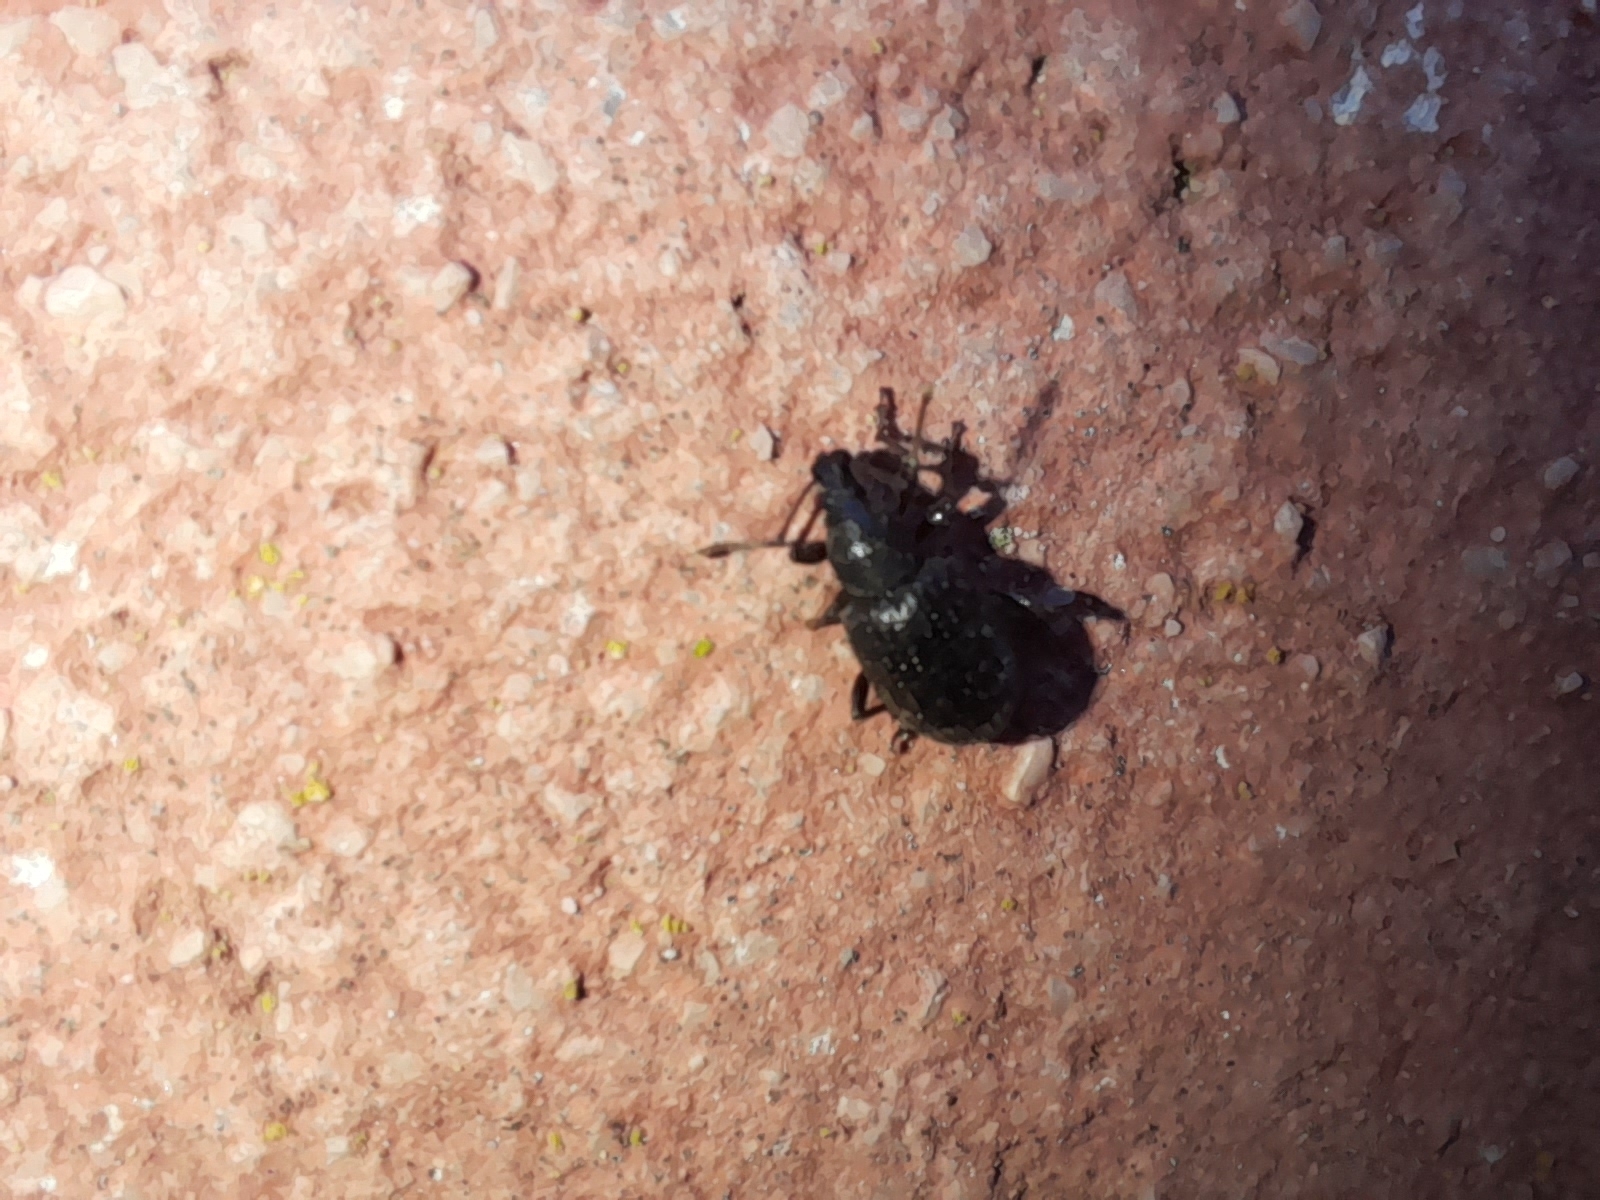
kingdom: Animalia
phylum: Arthropoda
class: Insecta
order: Coleoptera
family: Curculionidae
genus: Otiorhynchus
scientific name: Otiorhynchus cribricollis
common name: Weevil
